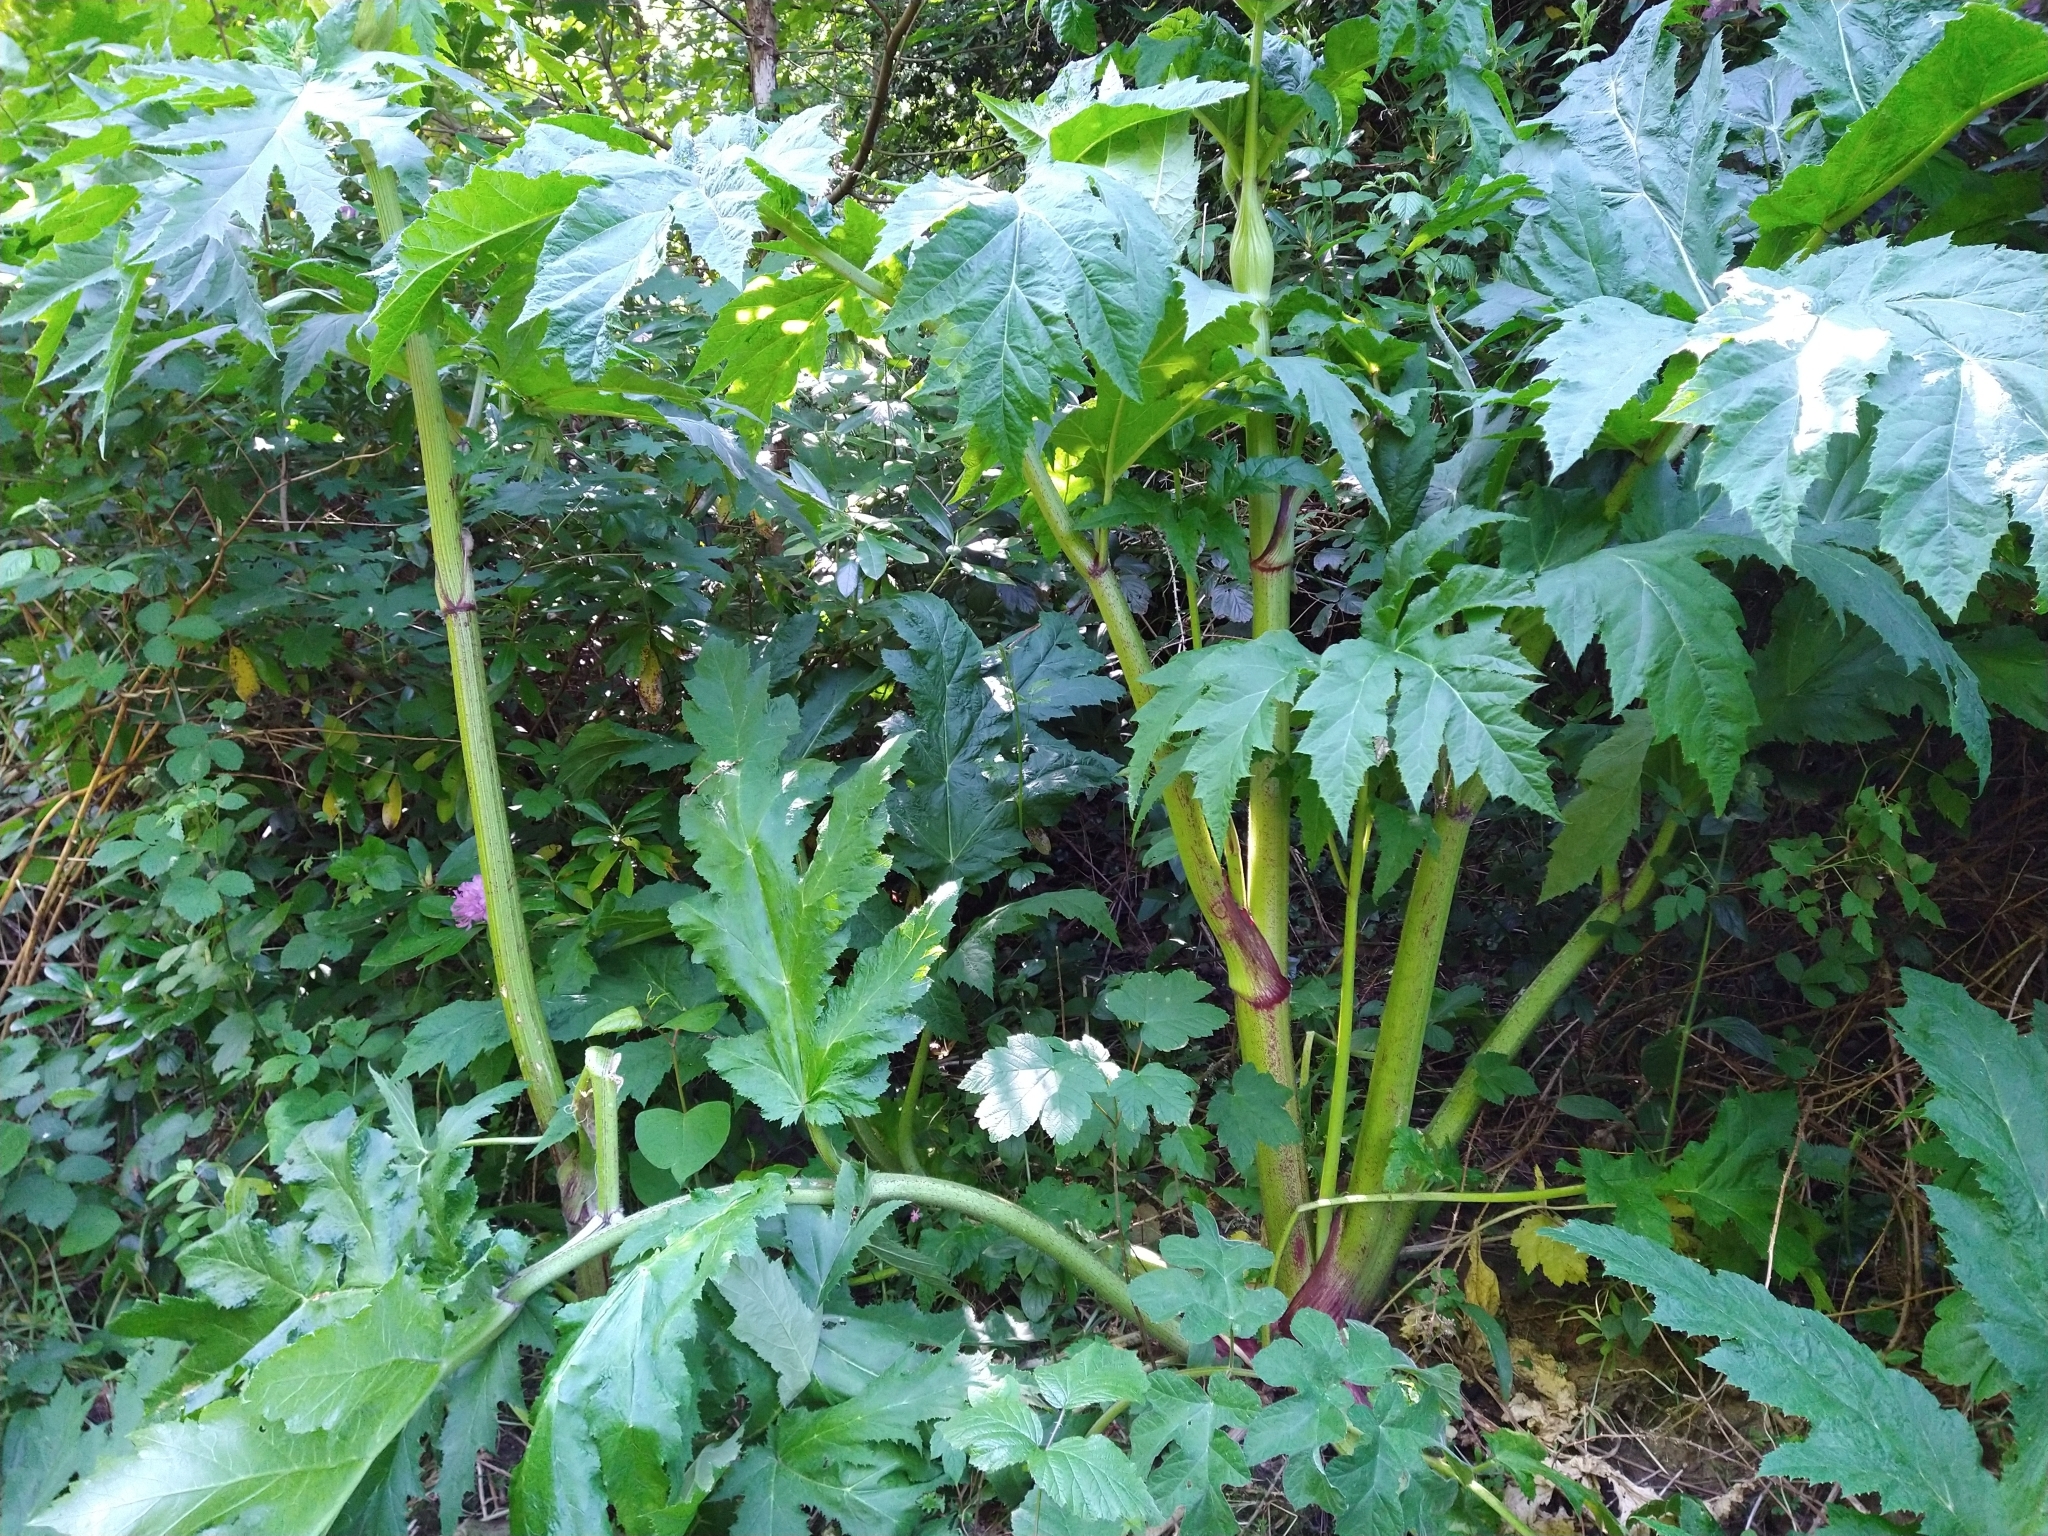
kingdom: Plantae
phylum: Tracheophyta
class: Magnoliopsida
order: Apiales
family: Apiaceae
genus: Heracleum
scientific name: Heracleum mantegazzianum
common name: Giant hogweed
